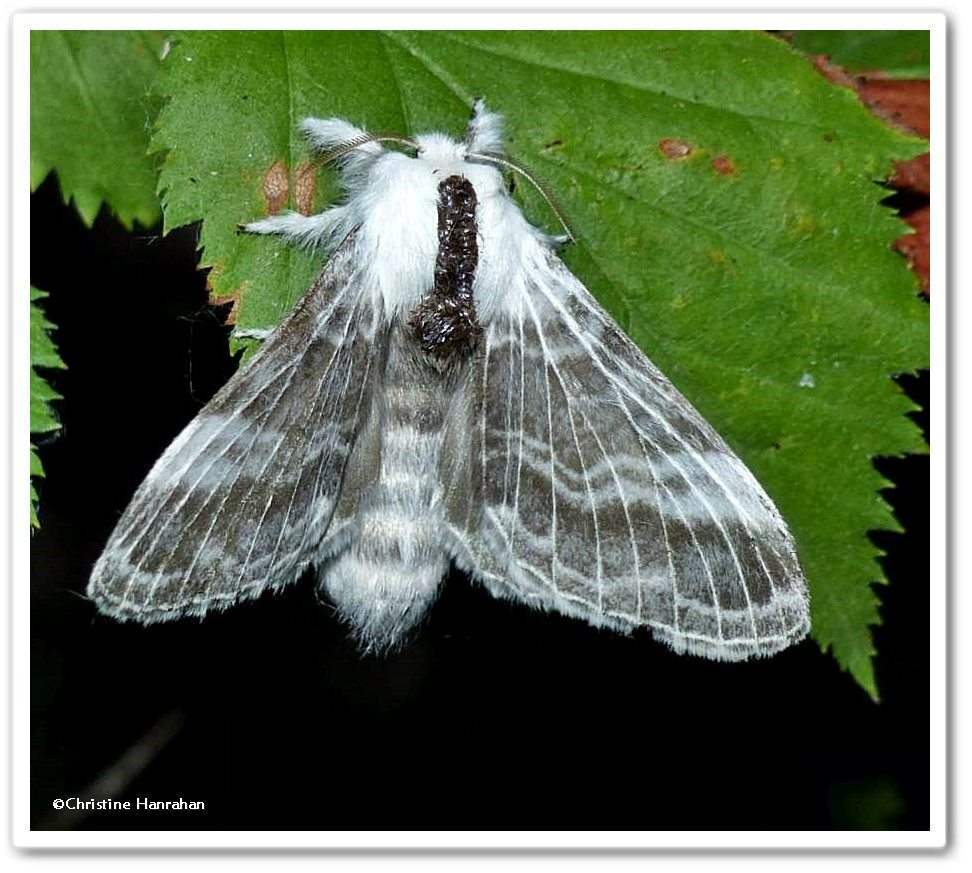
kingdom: Animalia
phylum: Arthropoda
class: Insecta
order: Lepidoptera
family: Lasiocampidae
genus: Tolype
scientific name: Tolype velleda
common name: Large tolype moth
